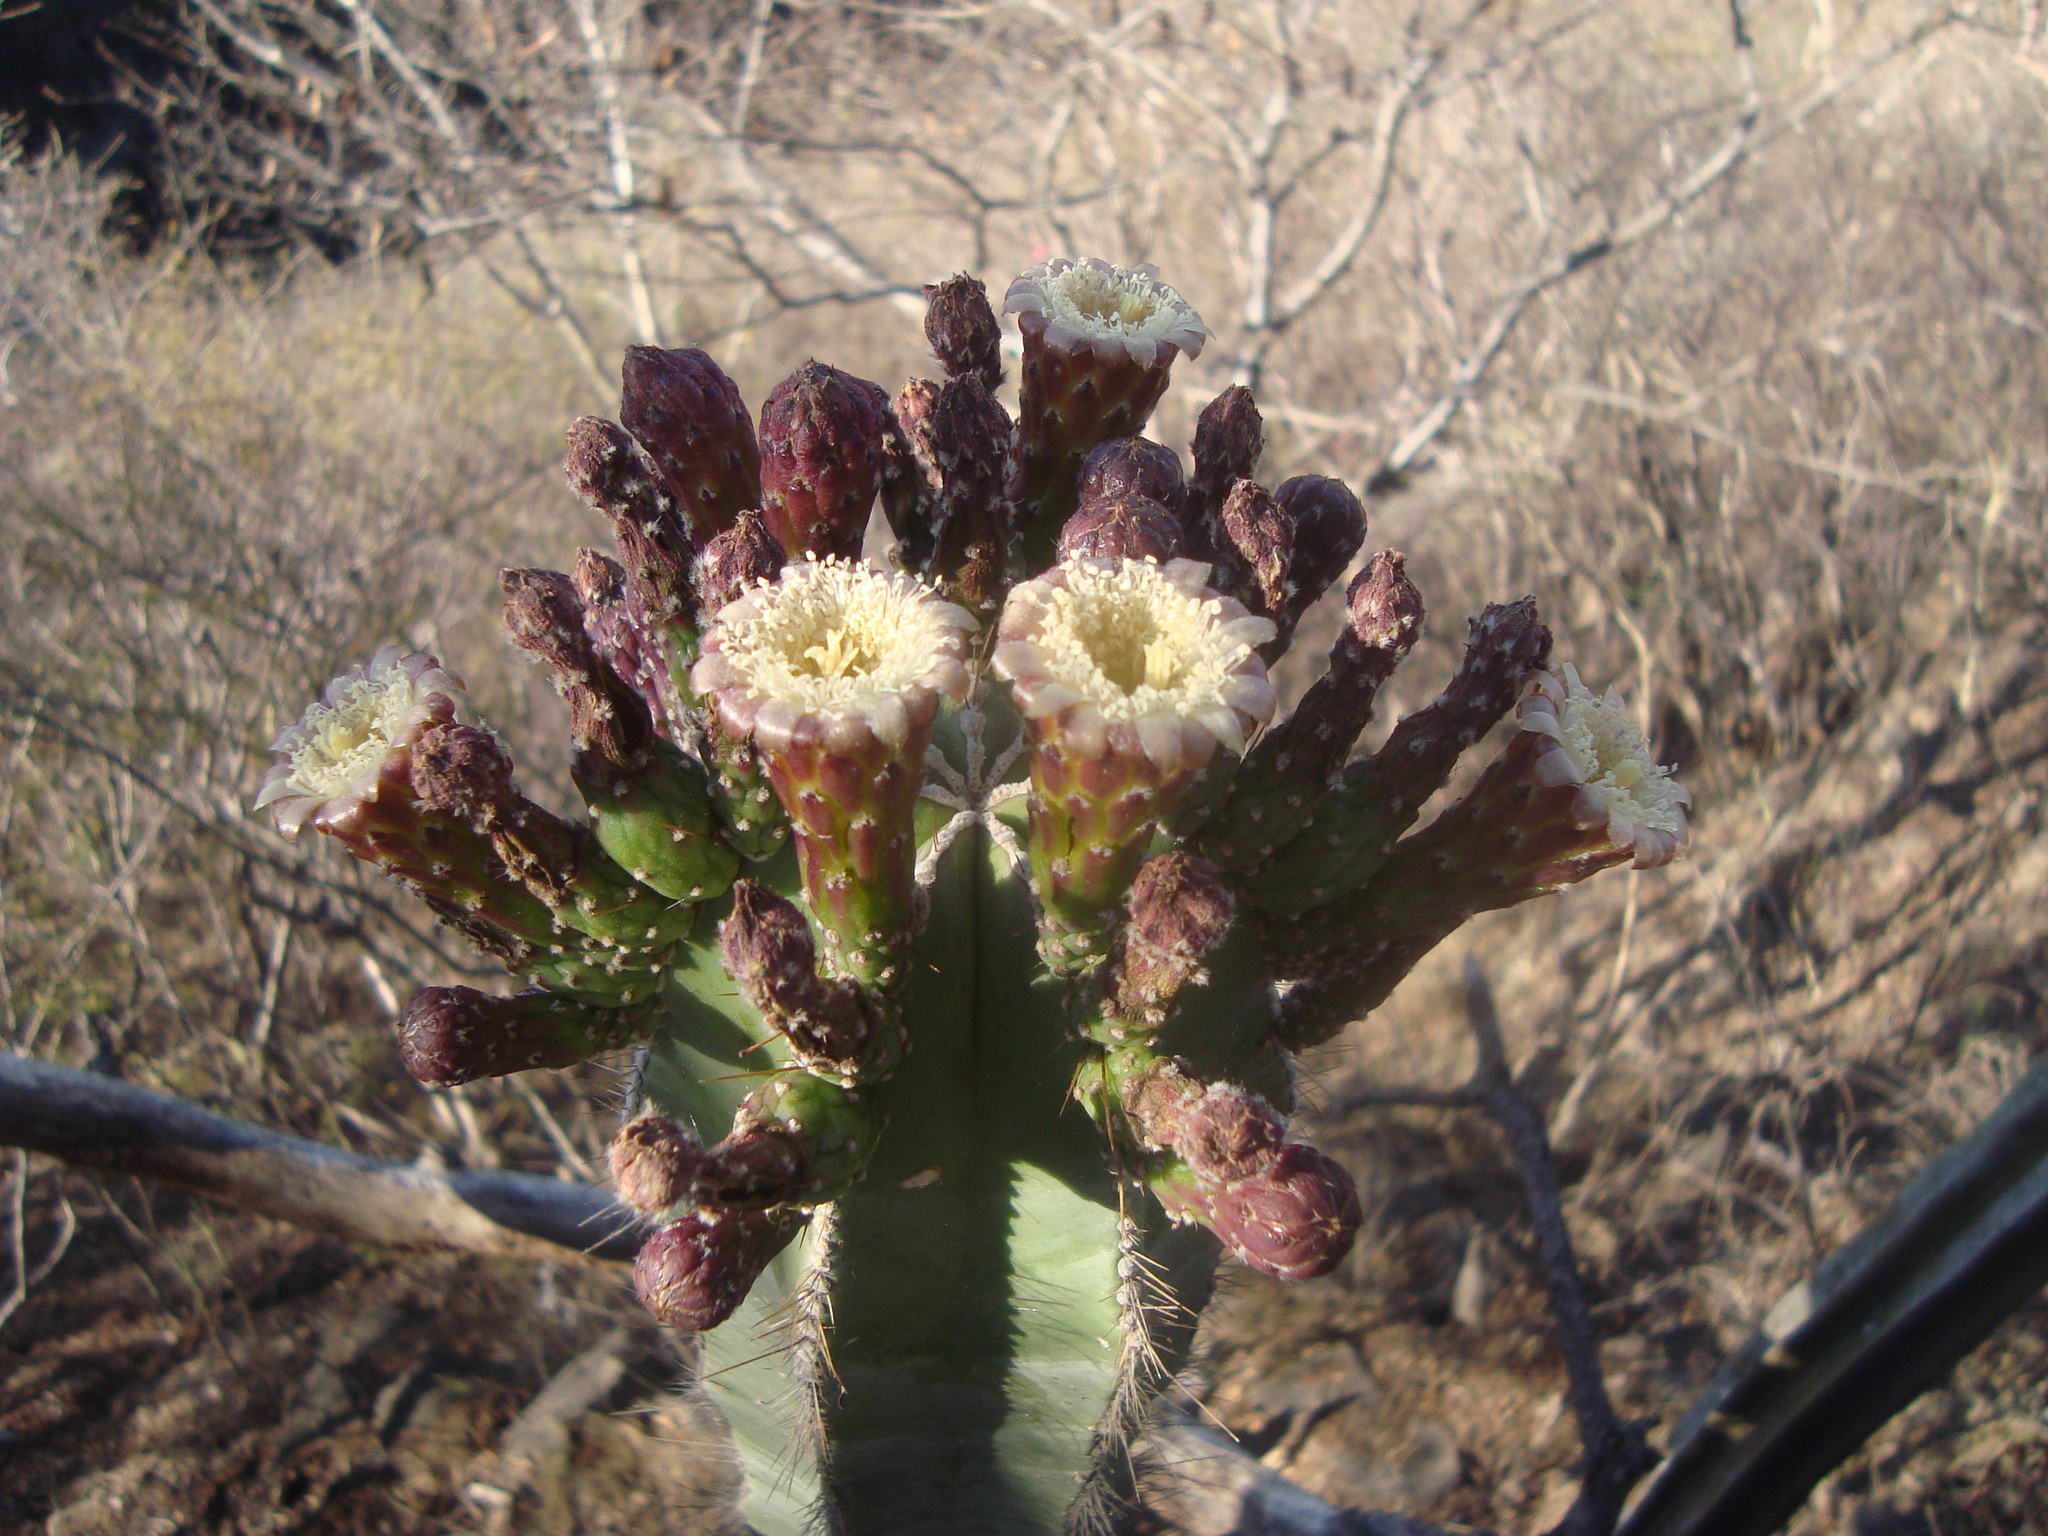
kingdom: Plantae
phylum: Tracheophyta
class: Magnoliopsida
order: Caryophyllales
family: Cactaceae
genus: Stenocereus
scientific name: Stenocereus dumortieri
